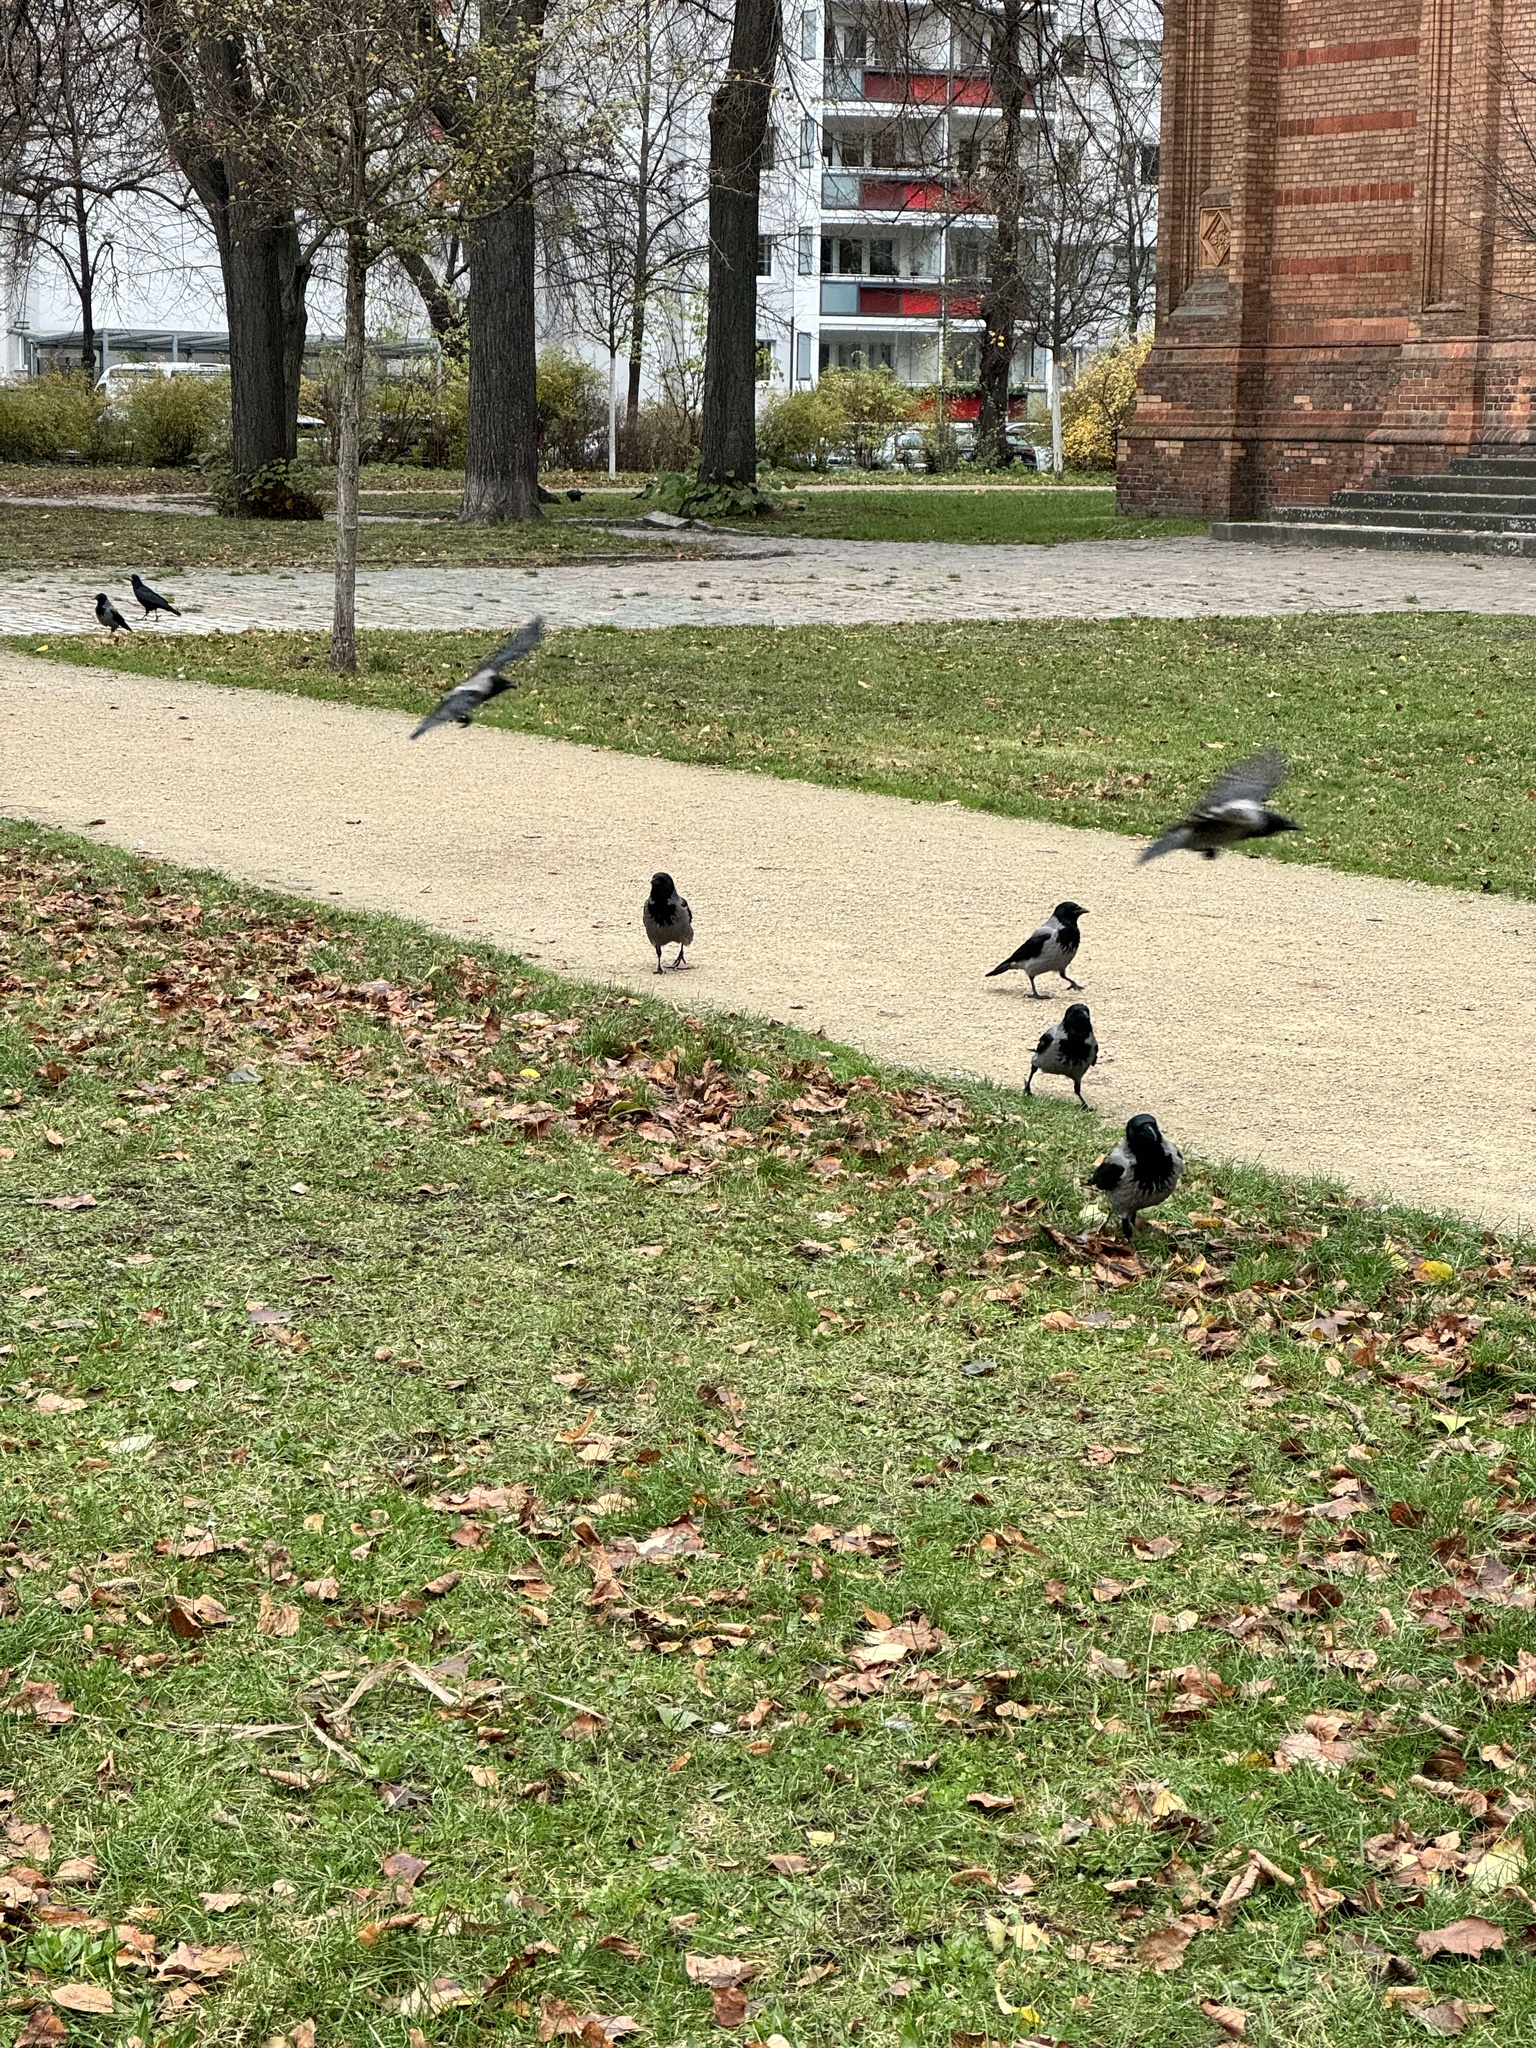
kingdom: Animalia
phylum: Chordata
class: Aves
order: Passeriformes
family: Corvidae
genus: Corvus
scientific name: Corvus cornix
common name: Hooded crow
